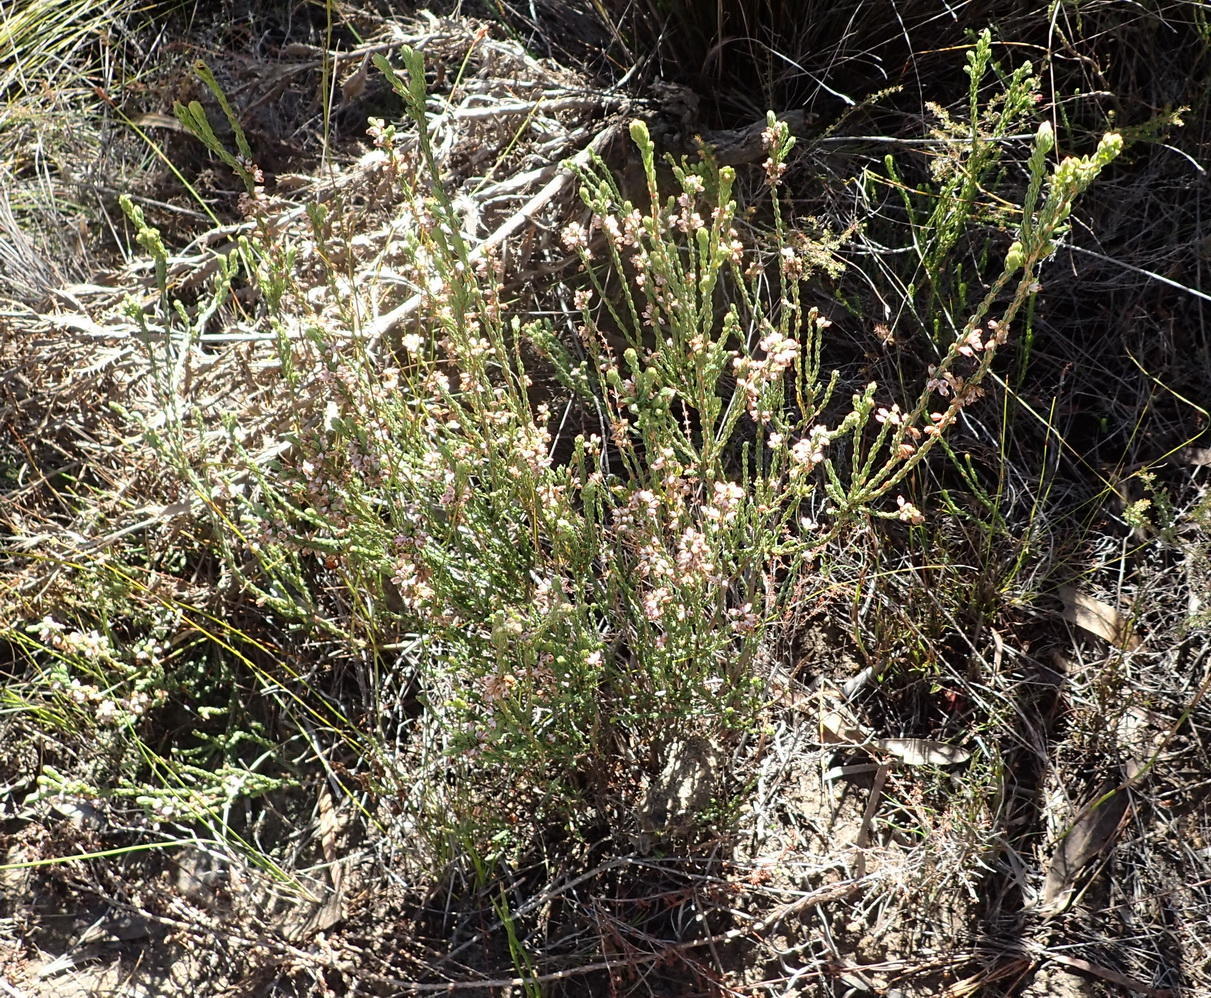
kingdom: Plantae
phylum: Tracheophyta
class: Magnoliopsida
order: Ericales
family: Ericaceae
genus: Erica
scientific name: Erica articularis
